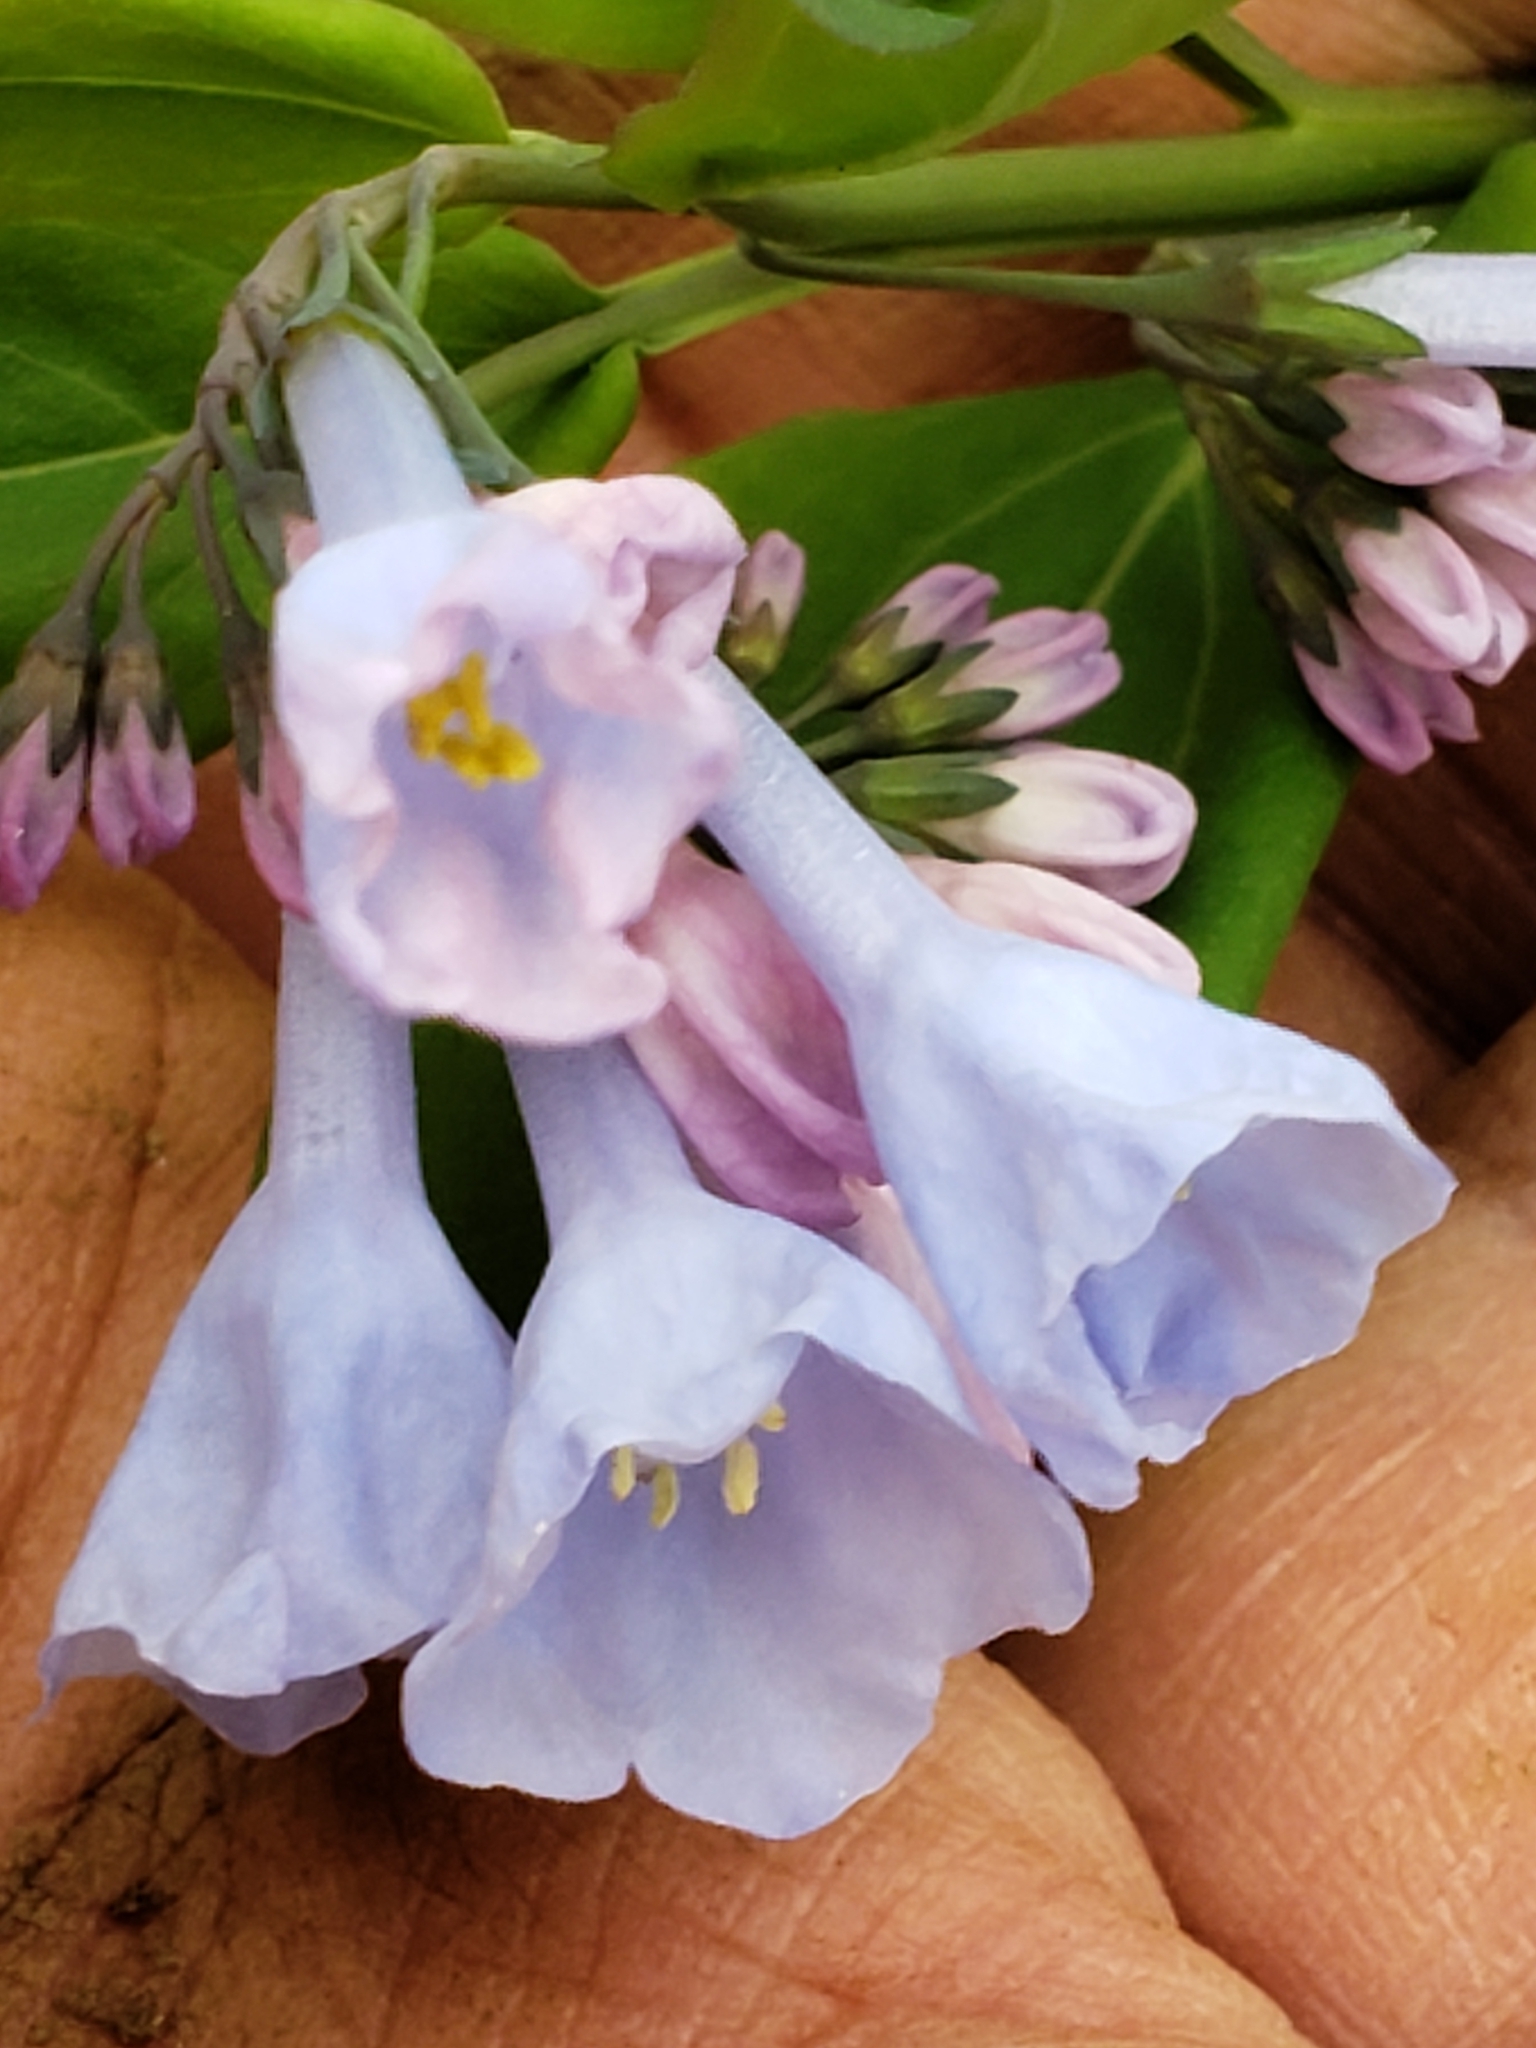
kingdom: Plantae
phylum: Tracheophyta
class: Magnoliopsida
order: Boraginales
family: Boraginaceae
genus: Mertensia
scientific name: Mertensia virginica
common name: Virginia bluebells
